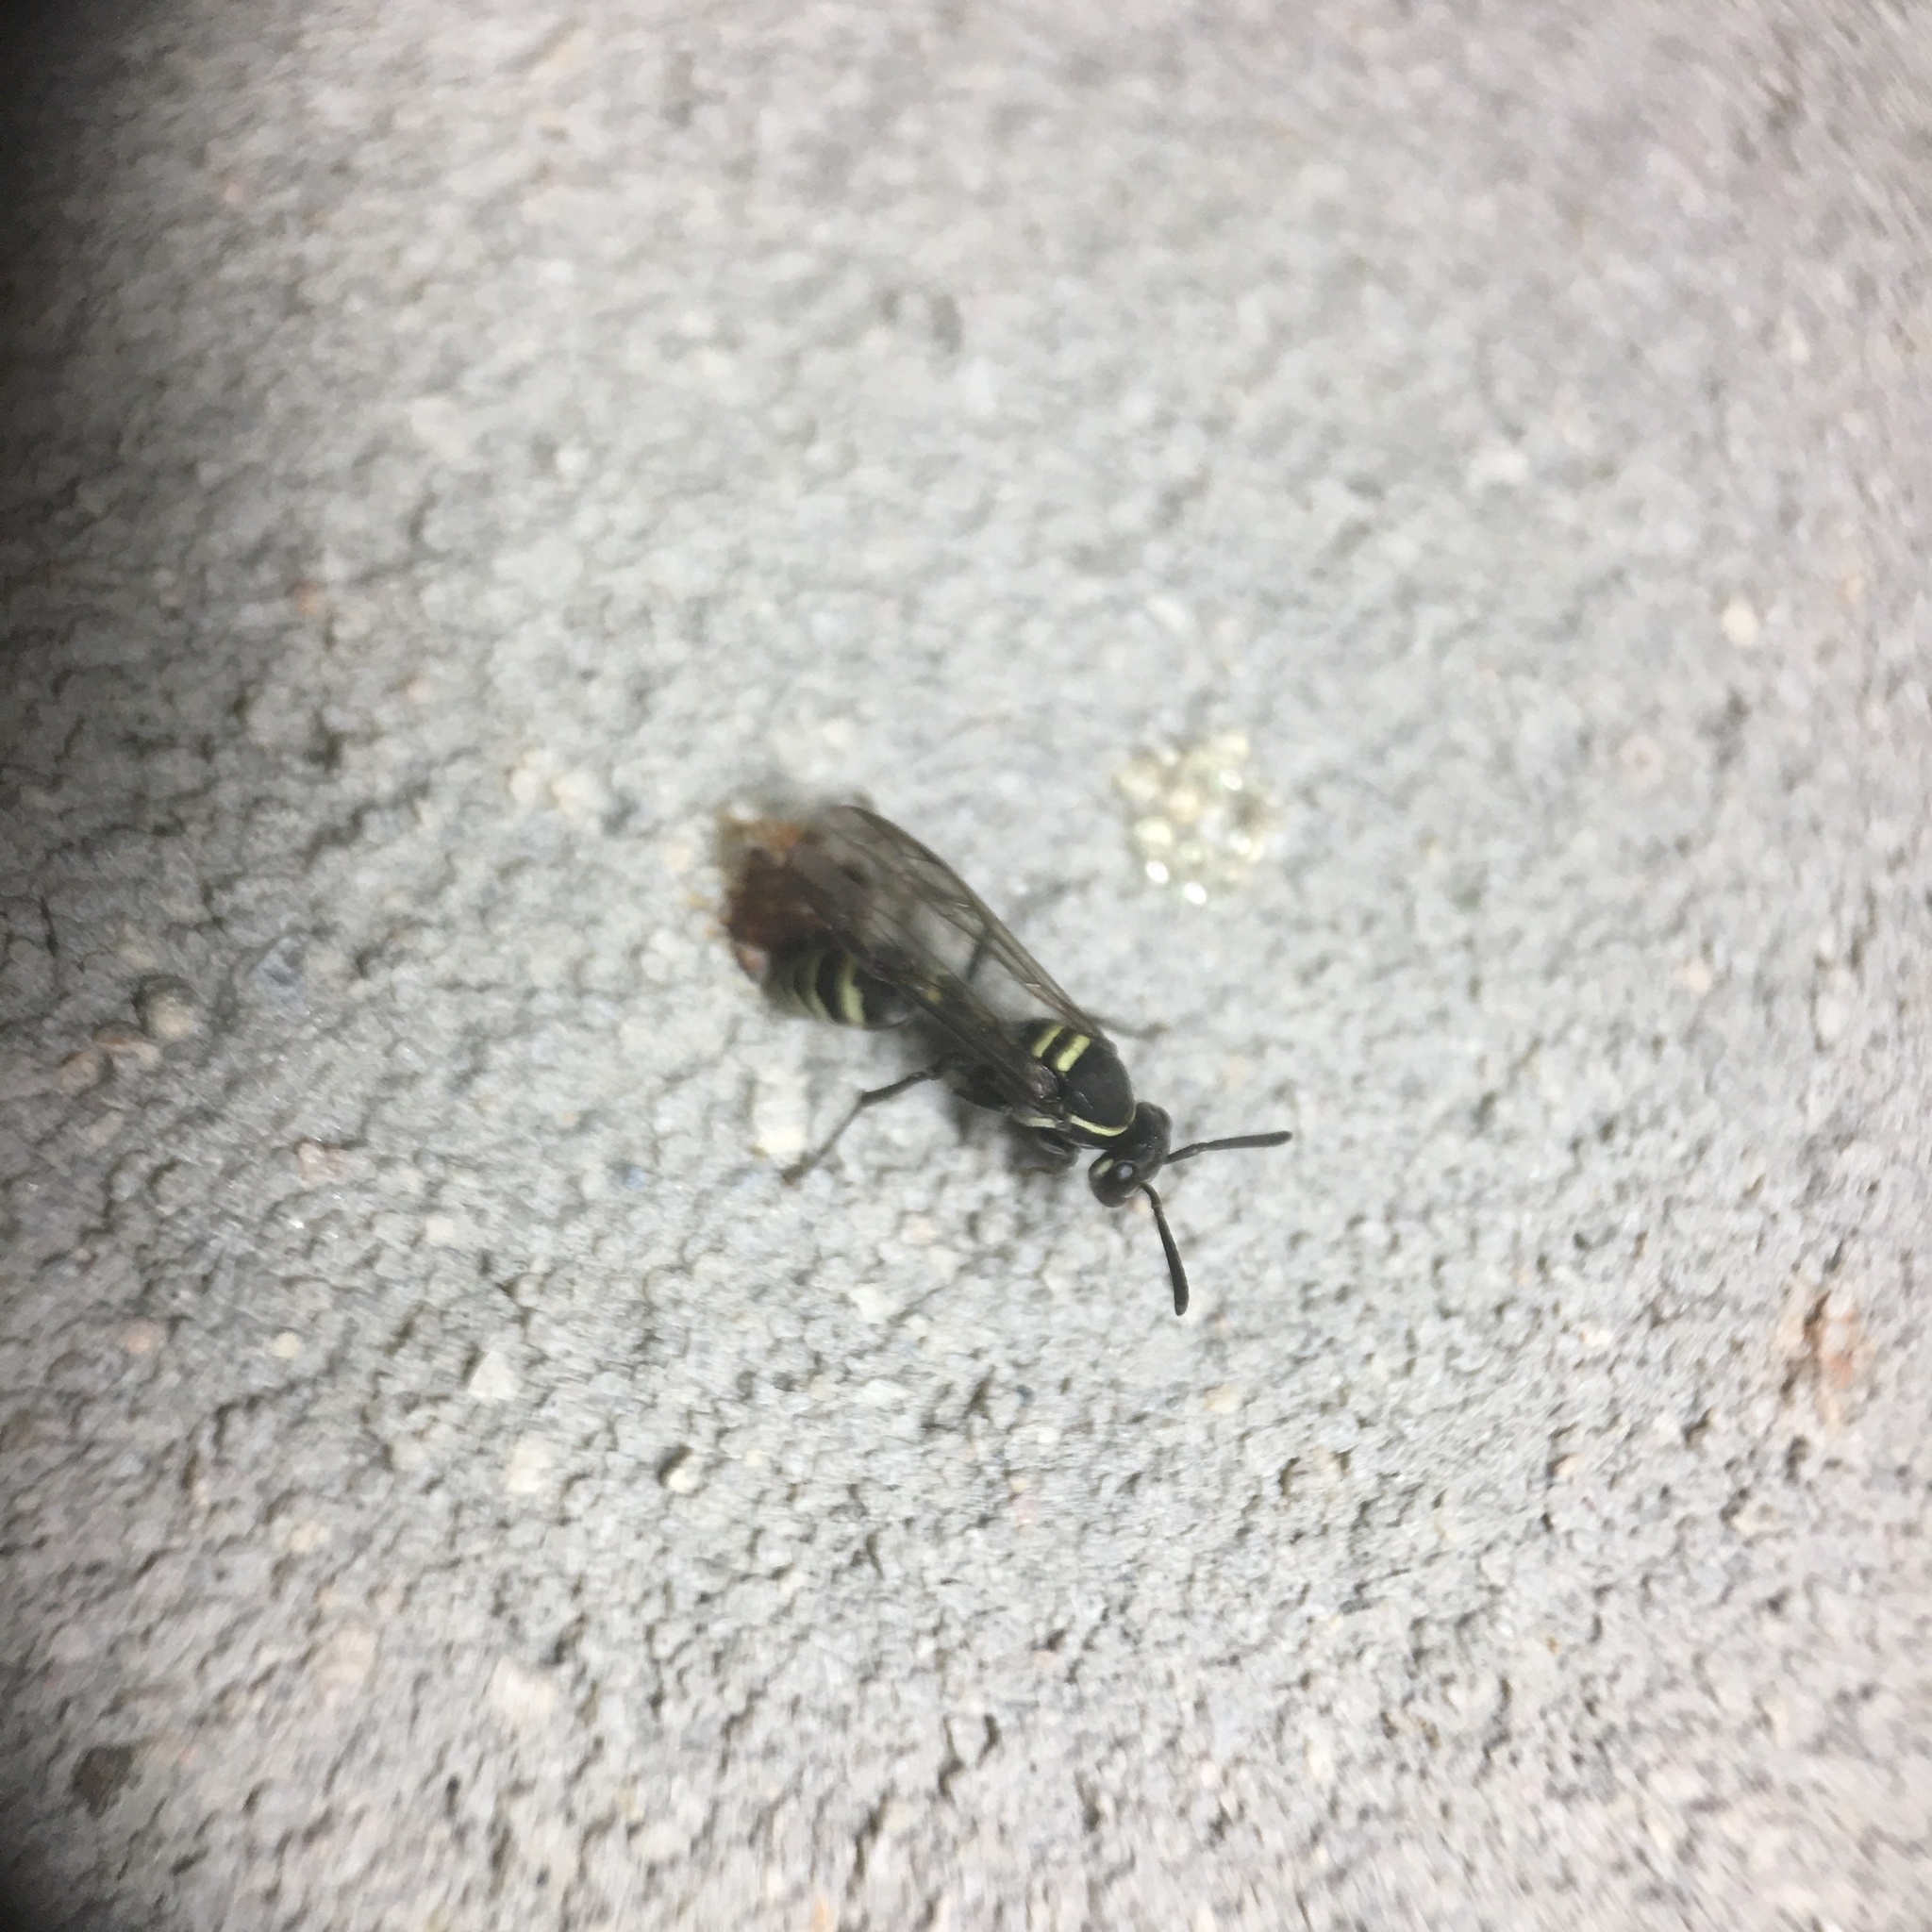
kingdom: Animalia
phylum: Arthropoda
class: Insecta
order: Hymenoptera
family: Eumenidae
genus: Polybia
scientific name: Polybia occidentalis
